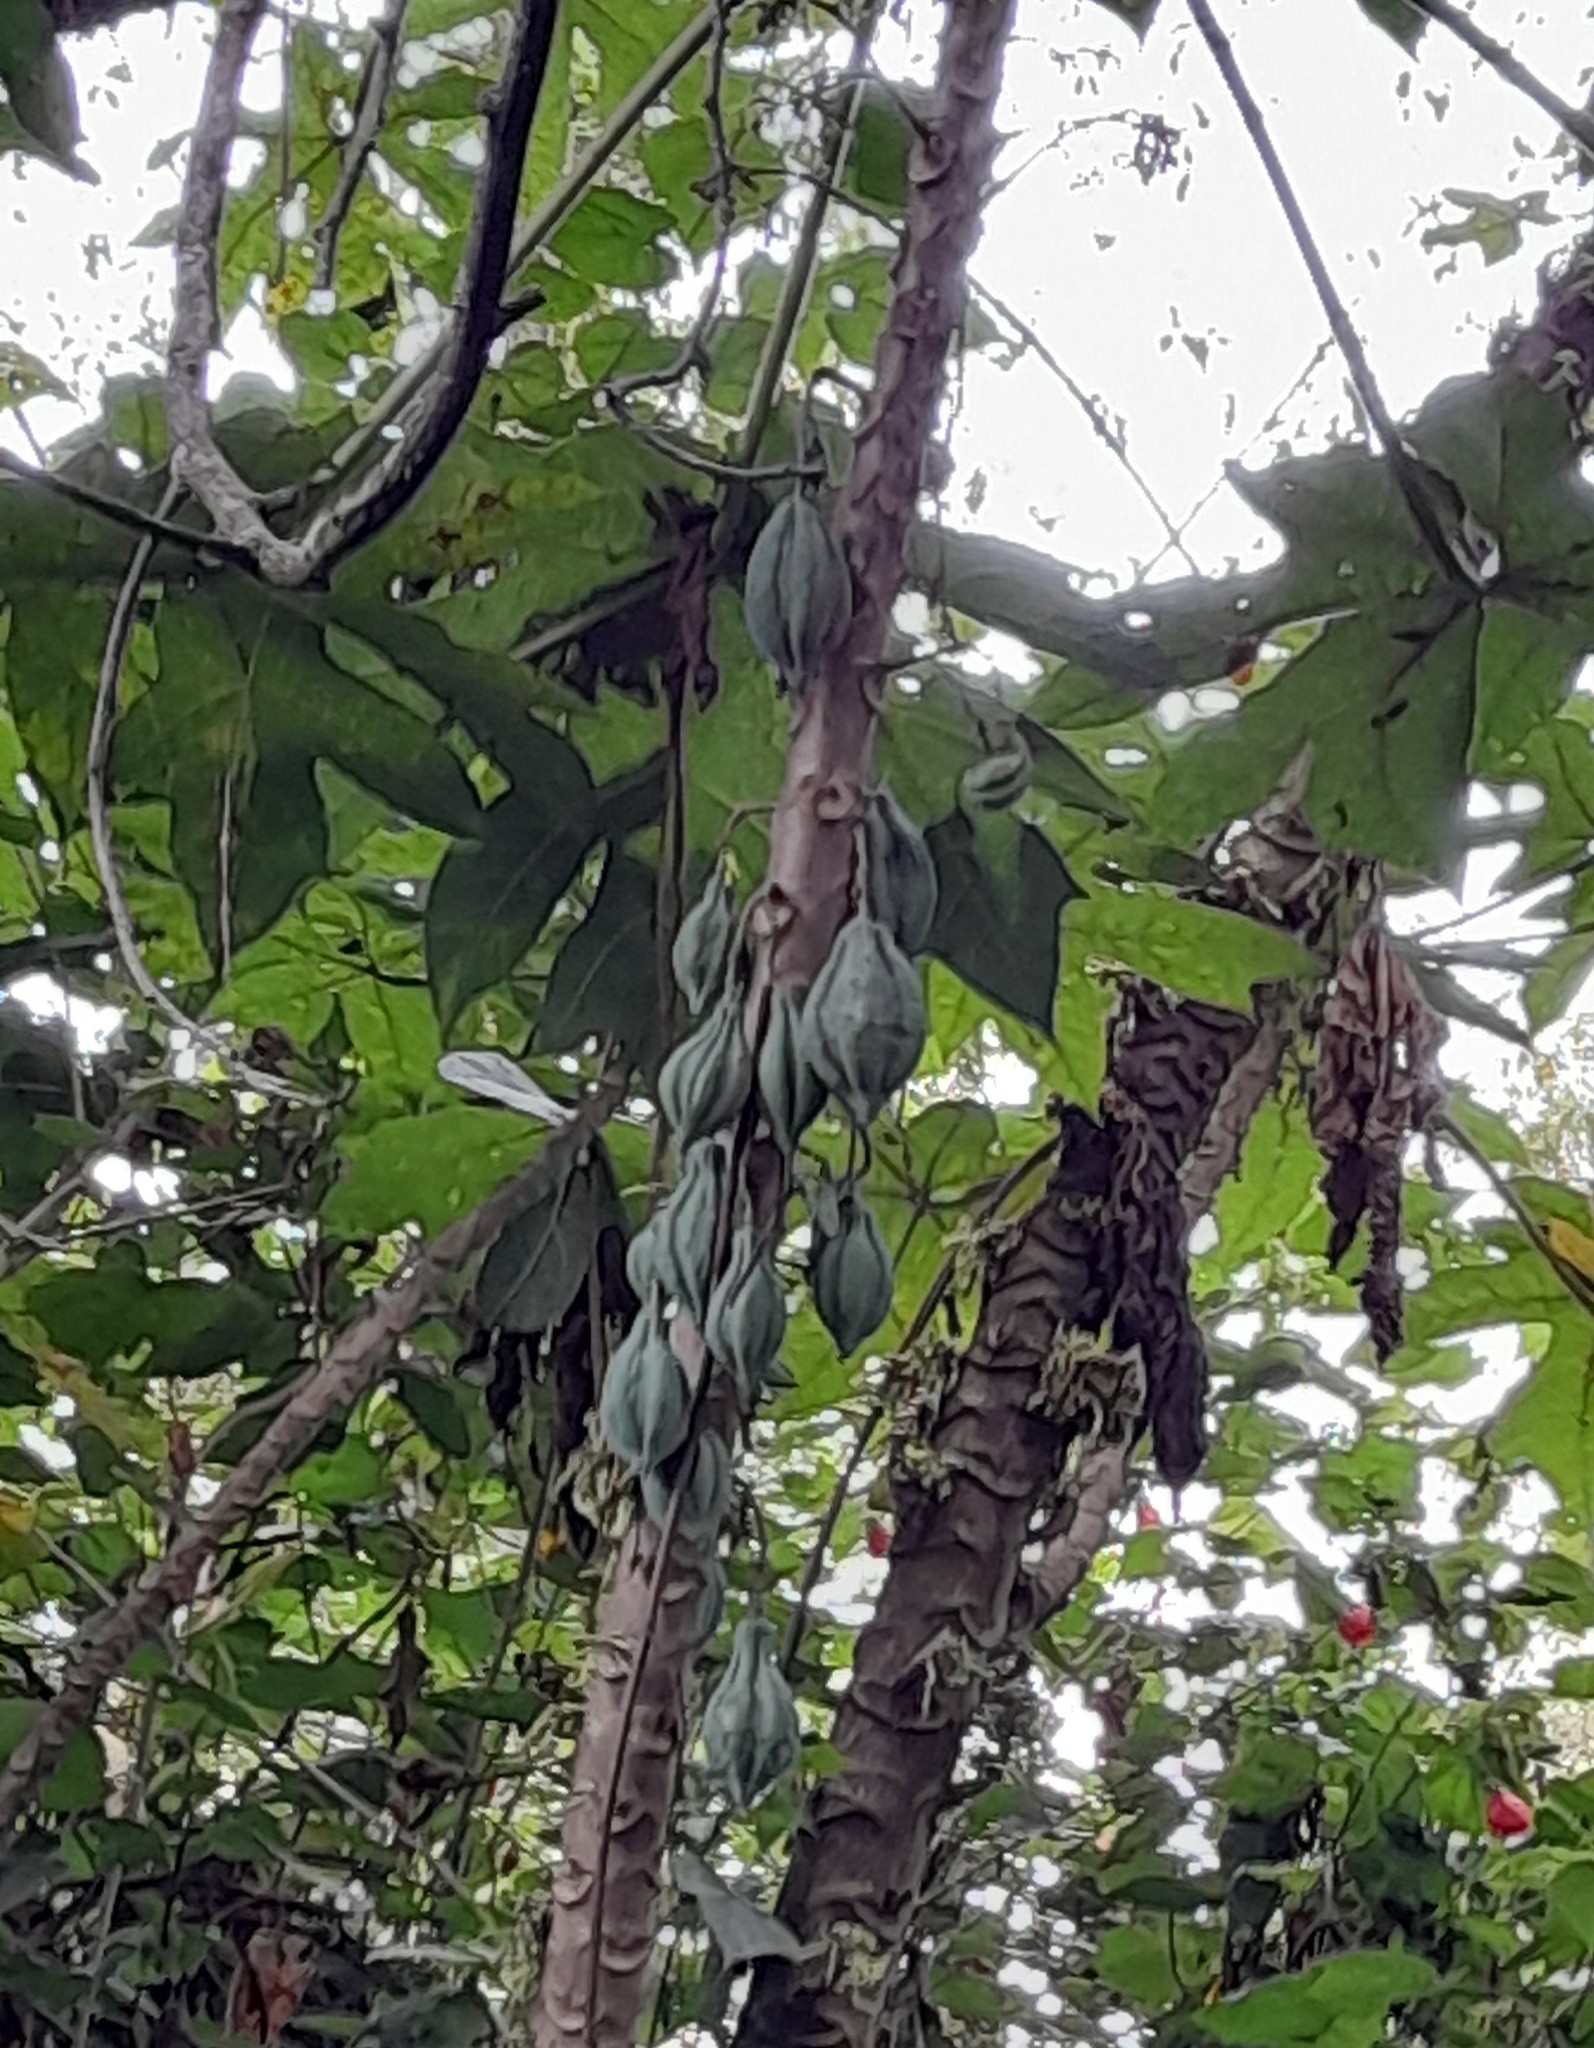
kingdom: Plantae
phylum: Tracheophyta
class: Magnoliopsida
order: Brassicales
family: Caricaceae
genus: Vasconcellea
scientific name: Vasconcellea pubescens
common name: Mountain papaya
